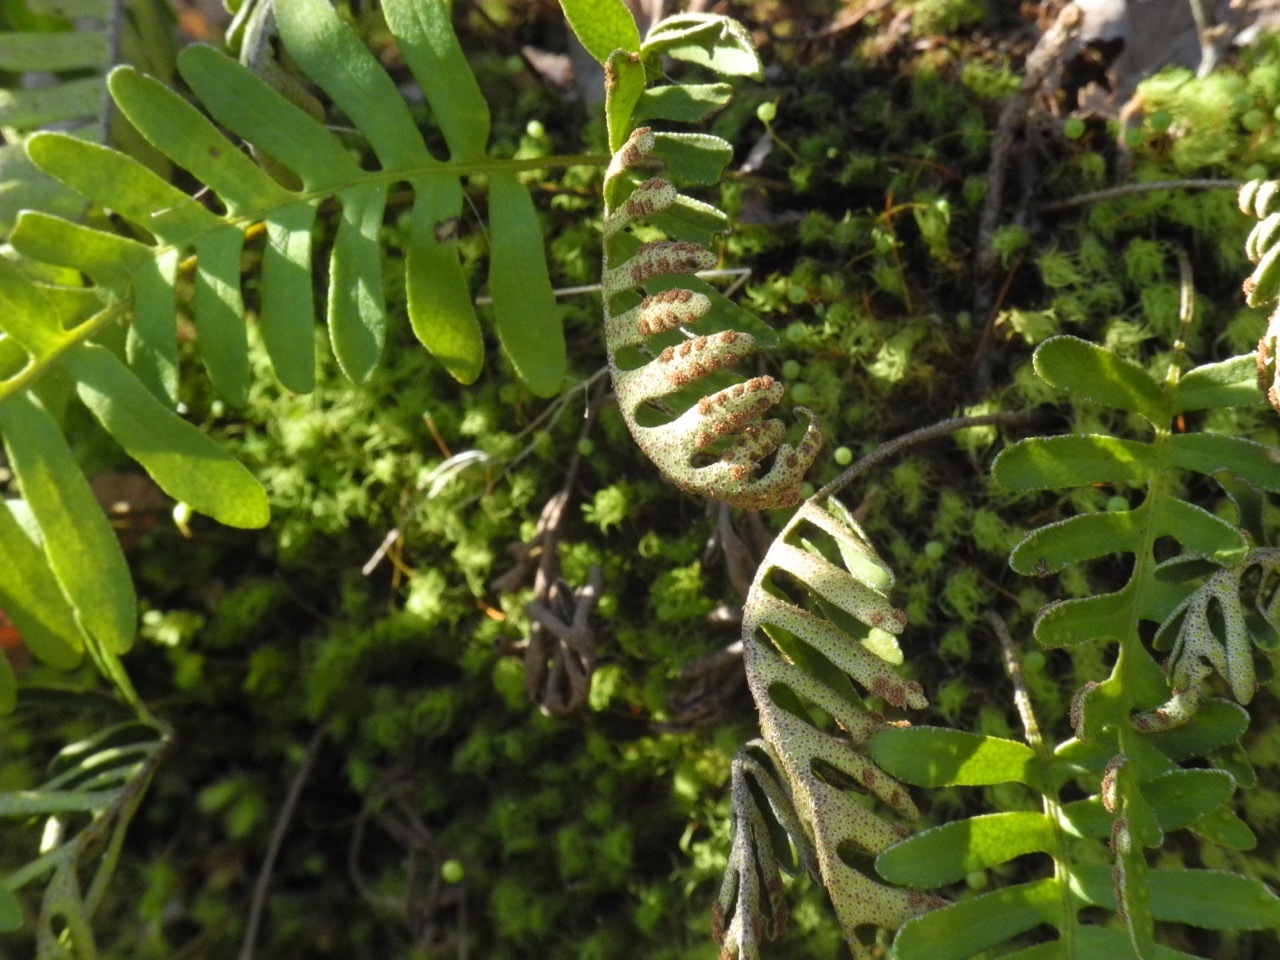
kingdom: Plantae
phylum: Tracheophyta
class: Polypodiopsida
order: Polypodiales
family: Polypodiaceae
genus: Pleopeltis
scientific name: Pleopeltis michauxiana
